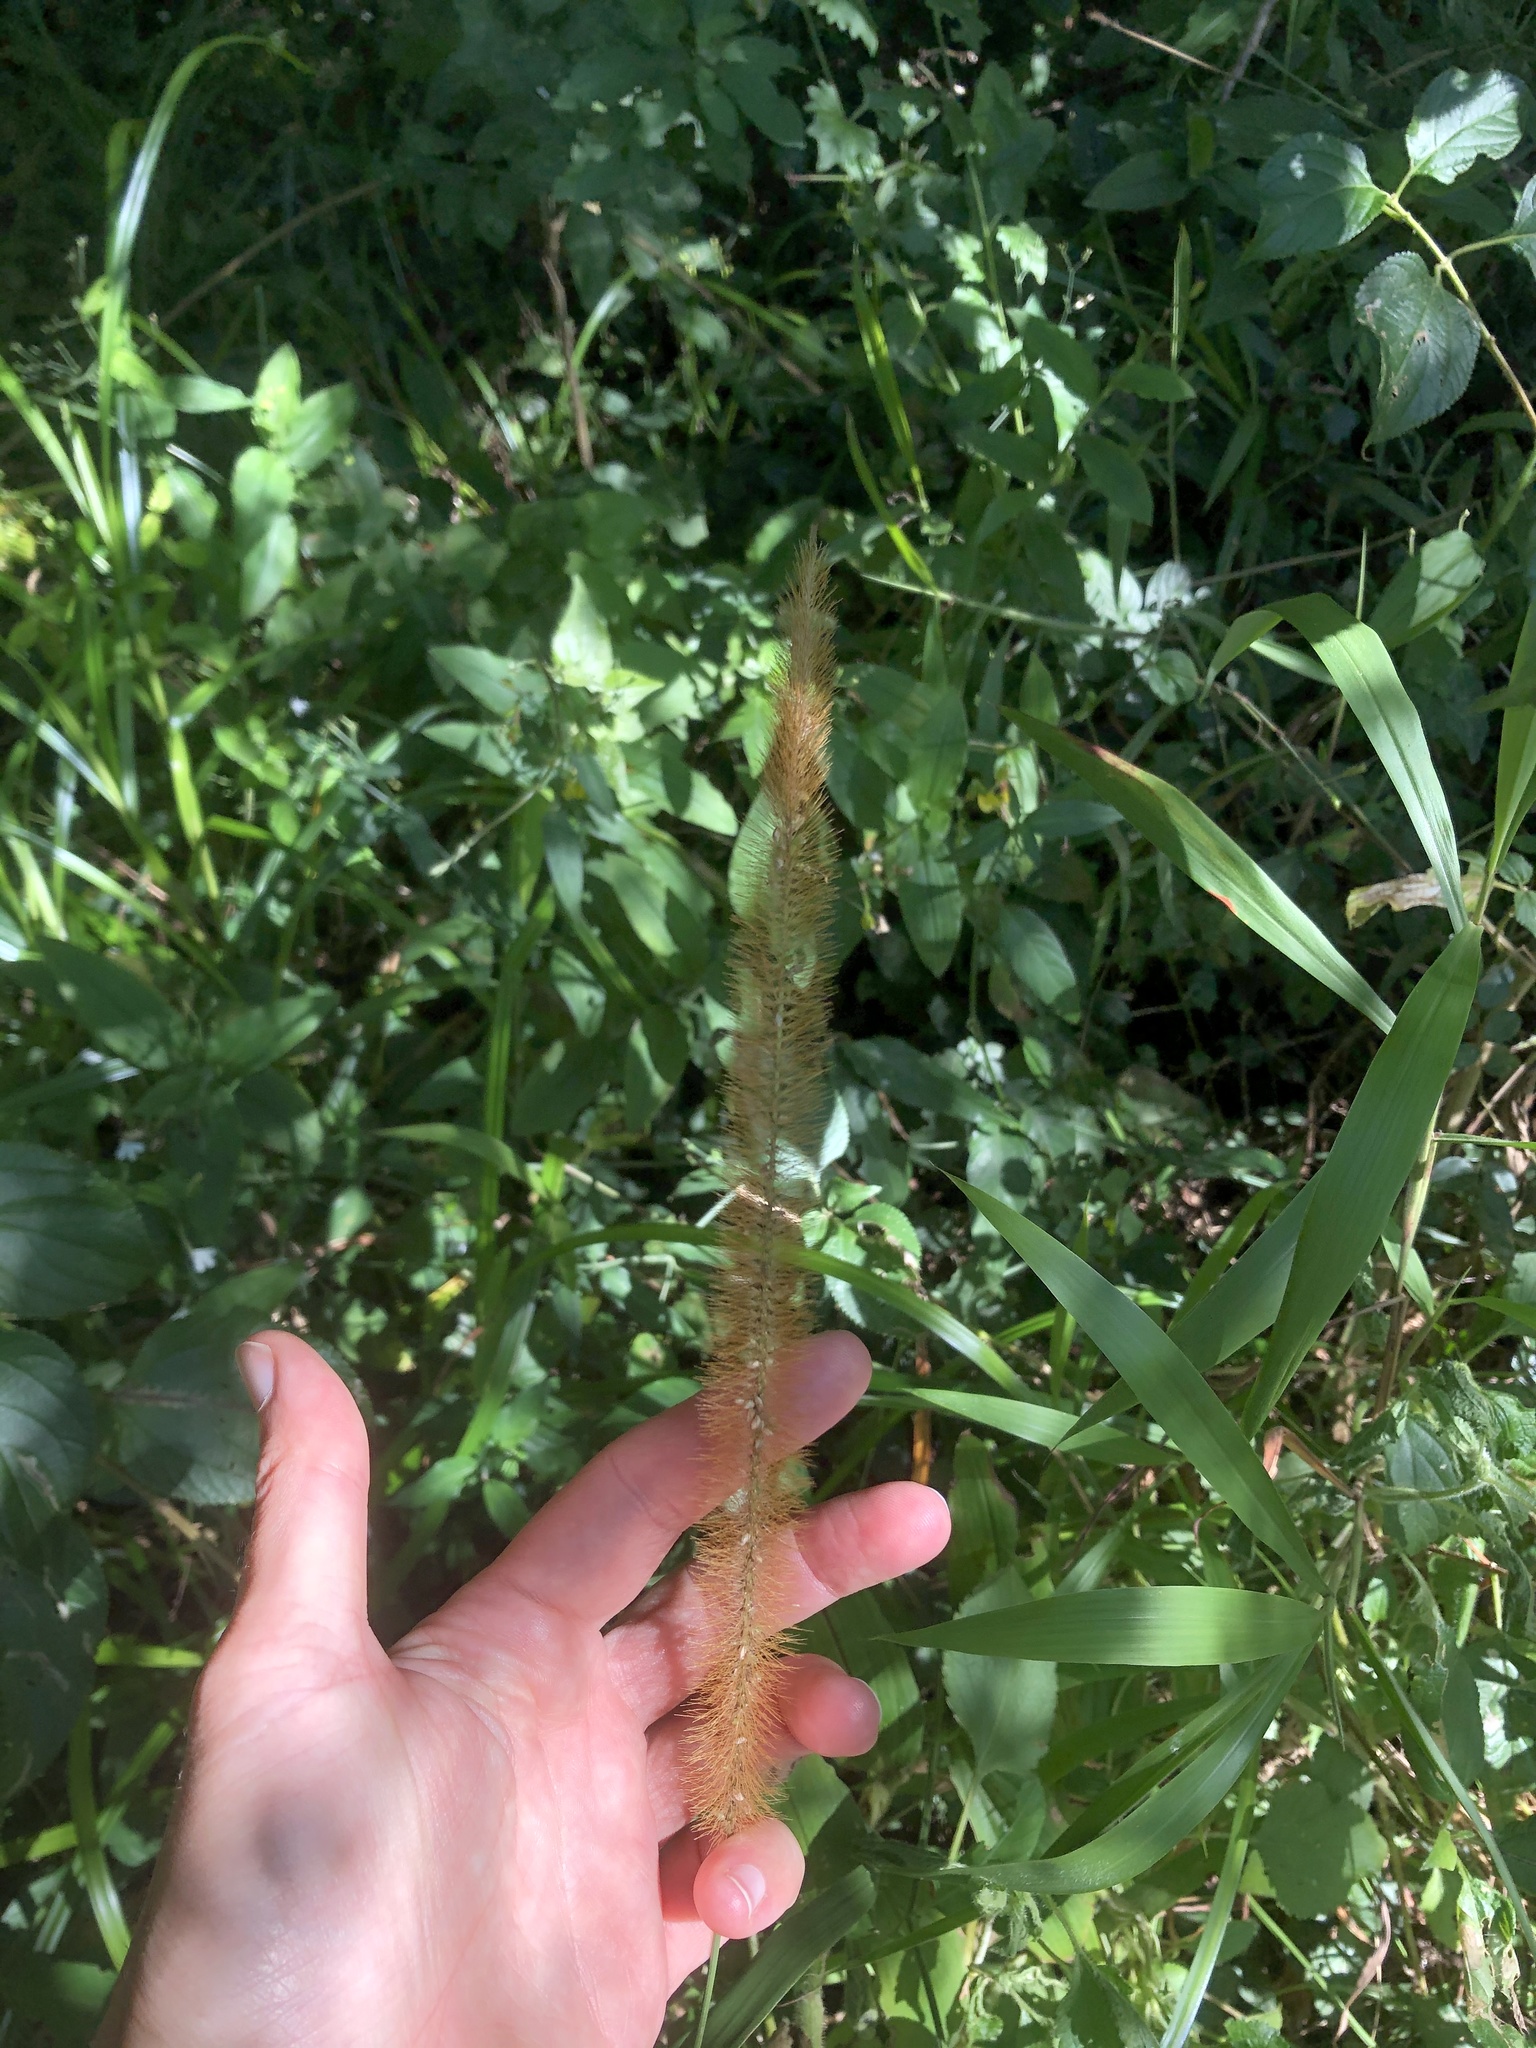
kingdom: Plantae
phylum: Tracheophyta
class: Liliopsida
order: Poales
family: Poaceae
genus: Setaria
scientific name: Setaria sphacelata
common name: African bristlegrass
